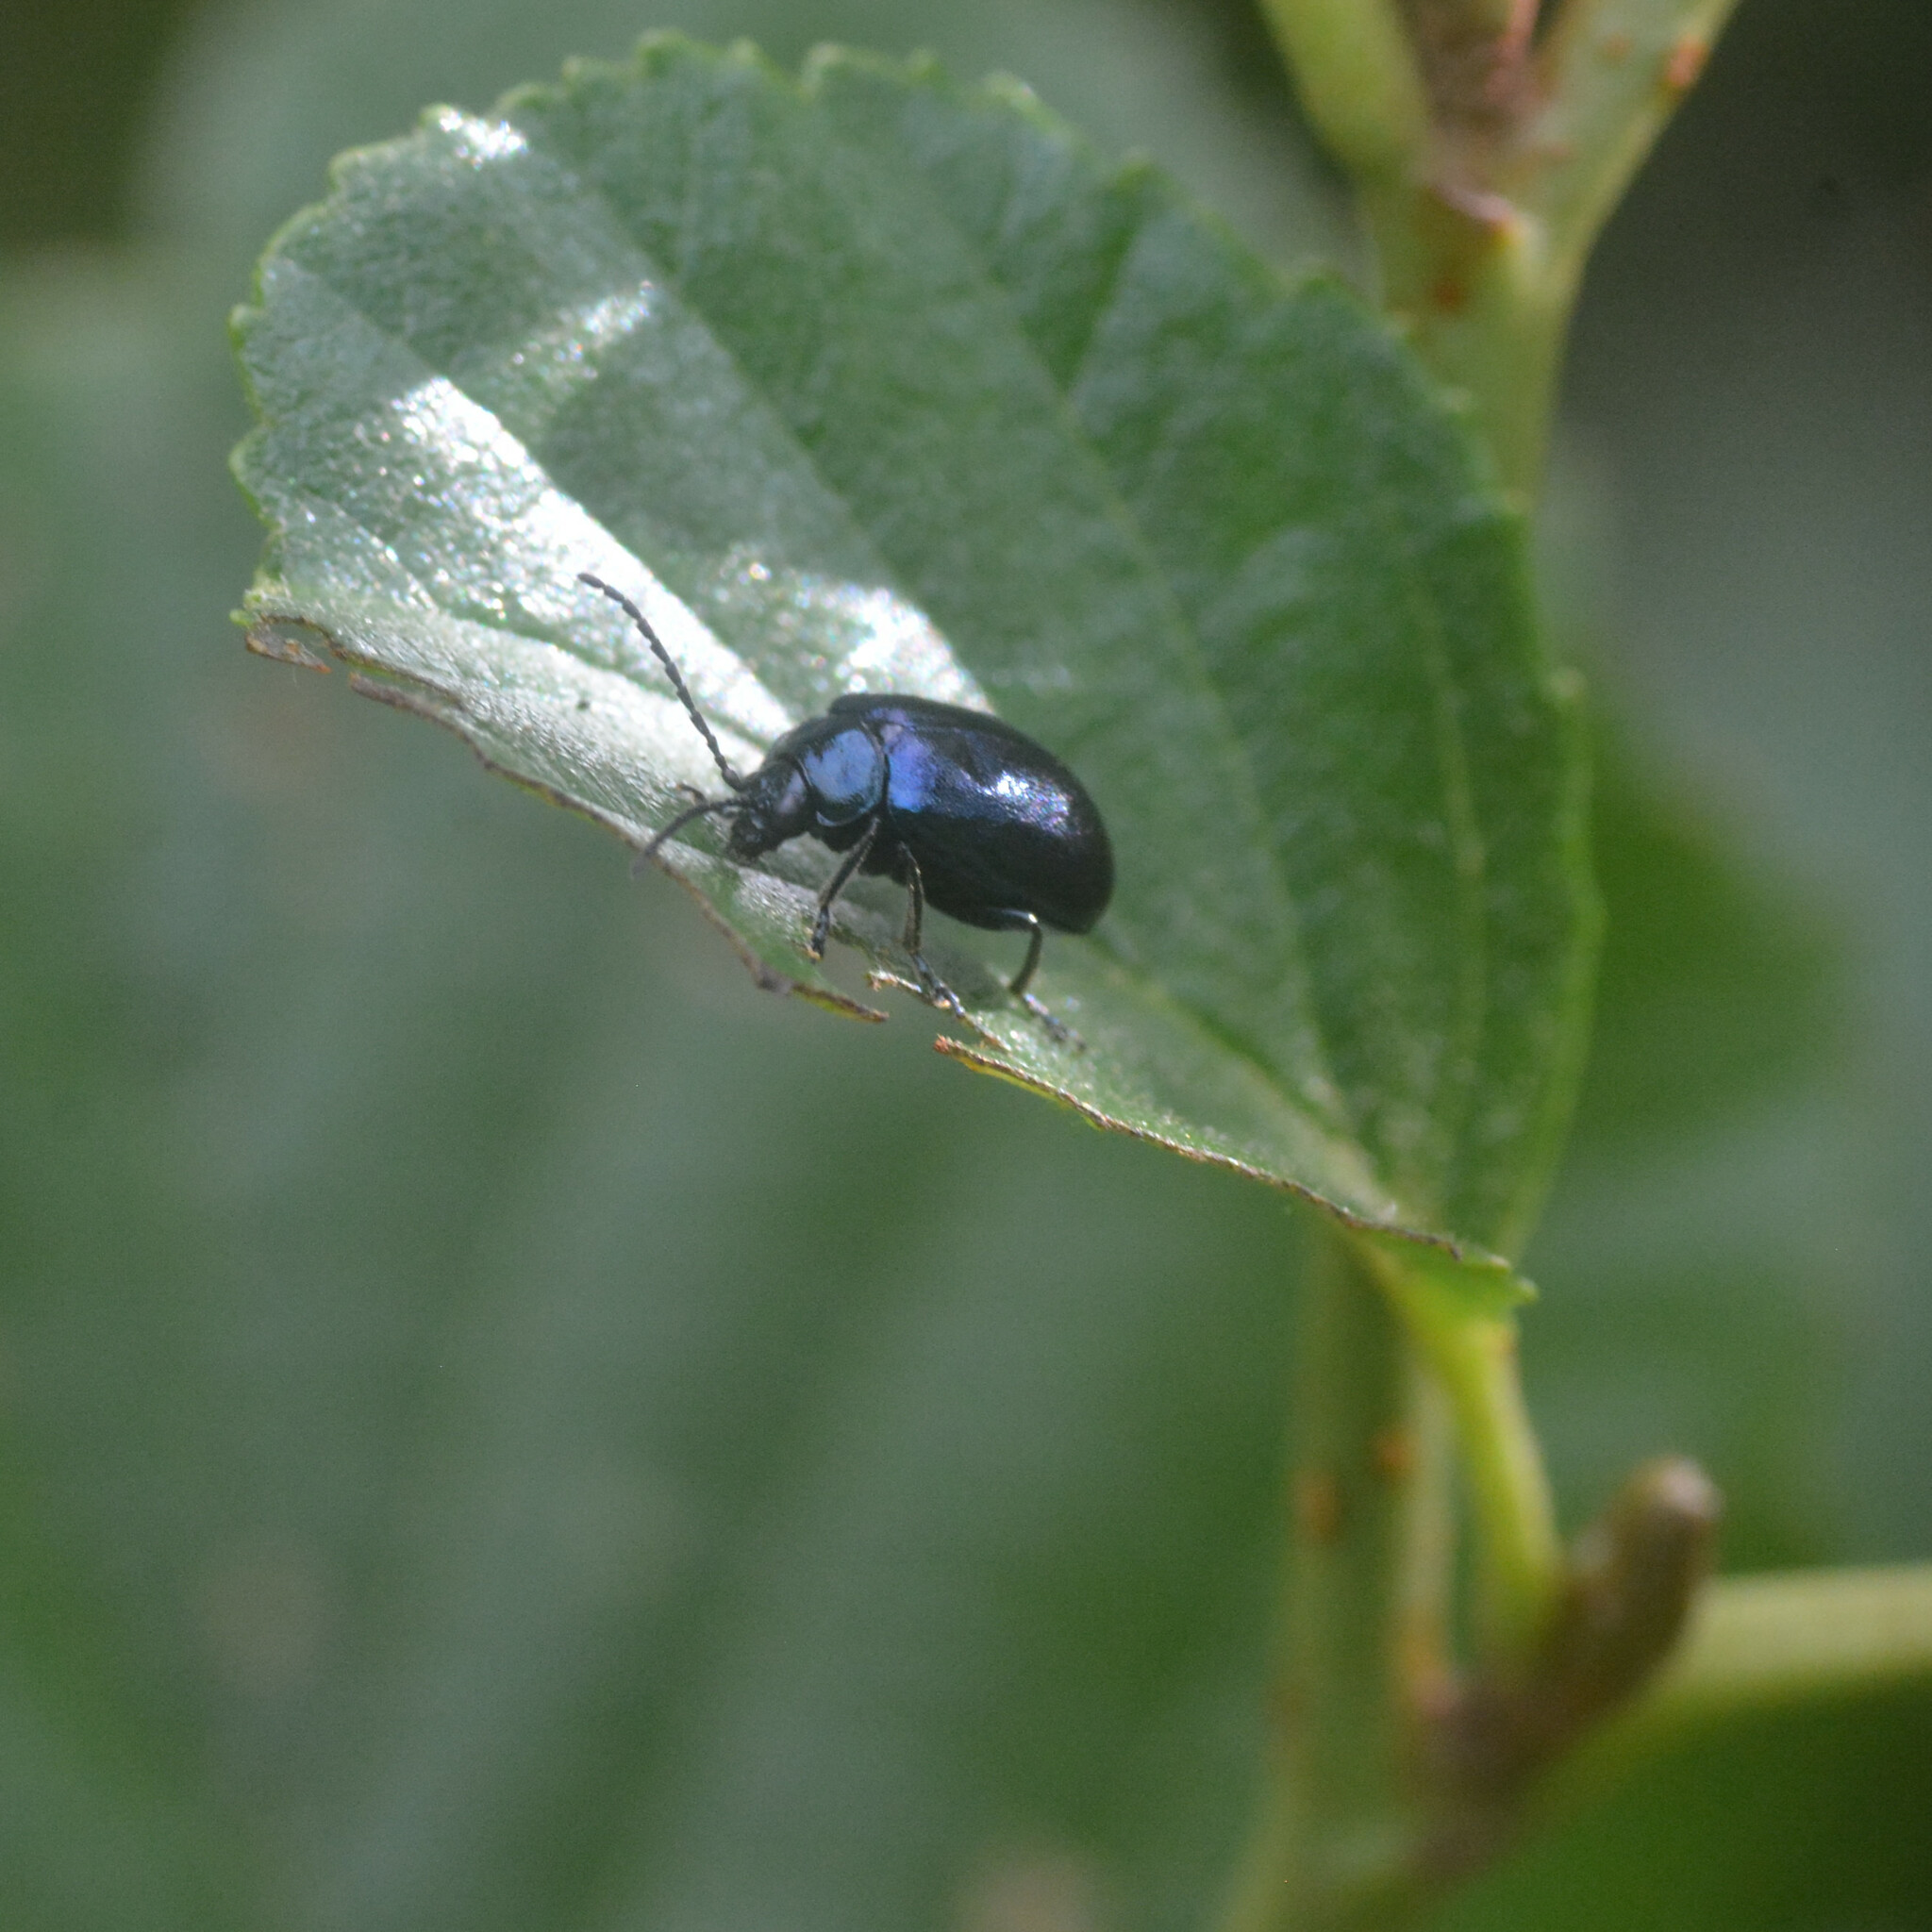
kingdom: Animalia
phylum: Arthropoda
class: Insecta
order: Coleoptera
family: Chrysomelidae
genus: Agelastica
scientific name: Agelastica alni
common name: Alder leaf beetle
